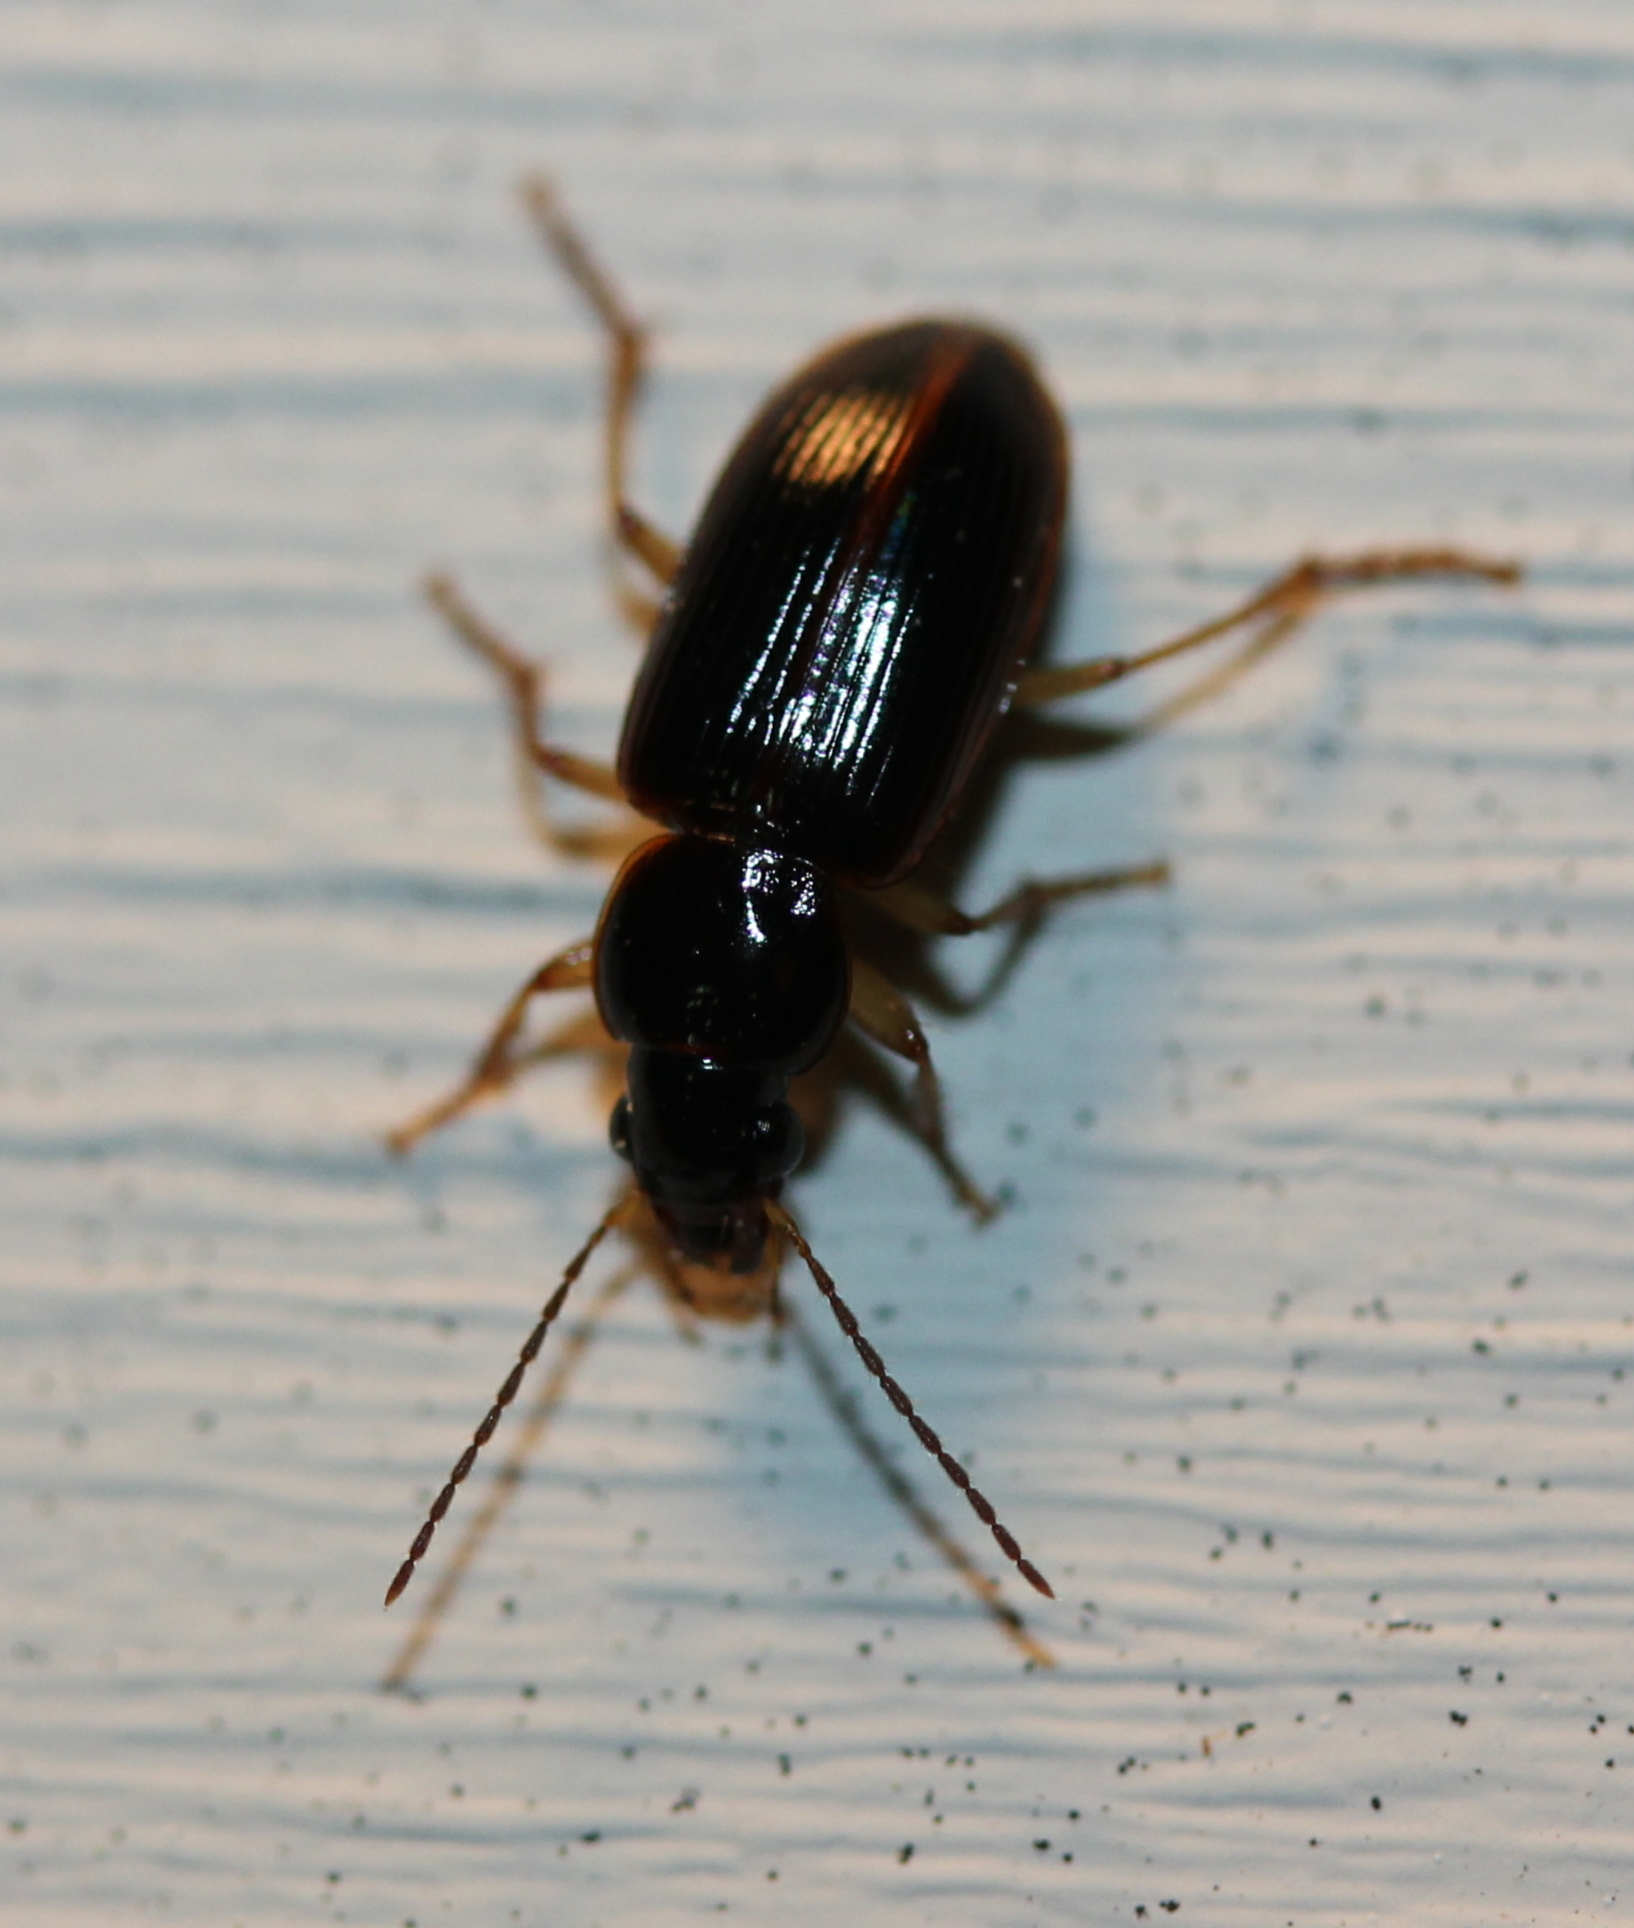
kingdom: Animalia
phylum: Arthropoda
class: Insecta
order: Coleoptera
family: Carabidae
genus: Stenolophus
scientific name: Stenolophus ochropezus
